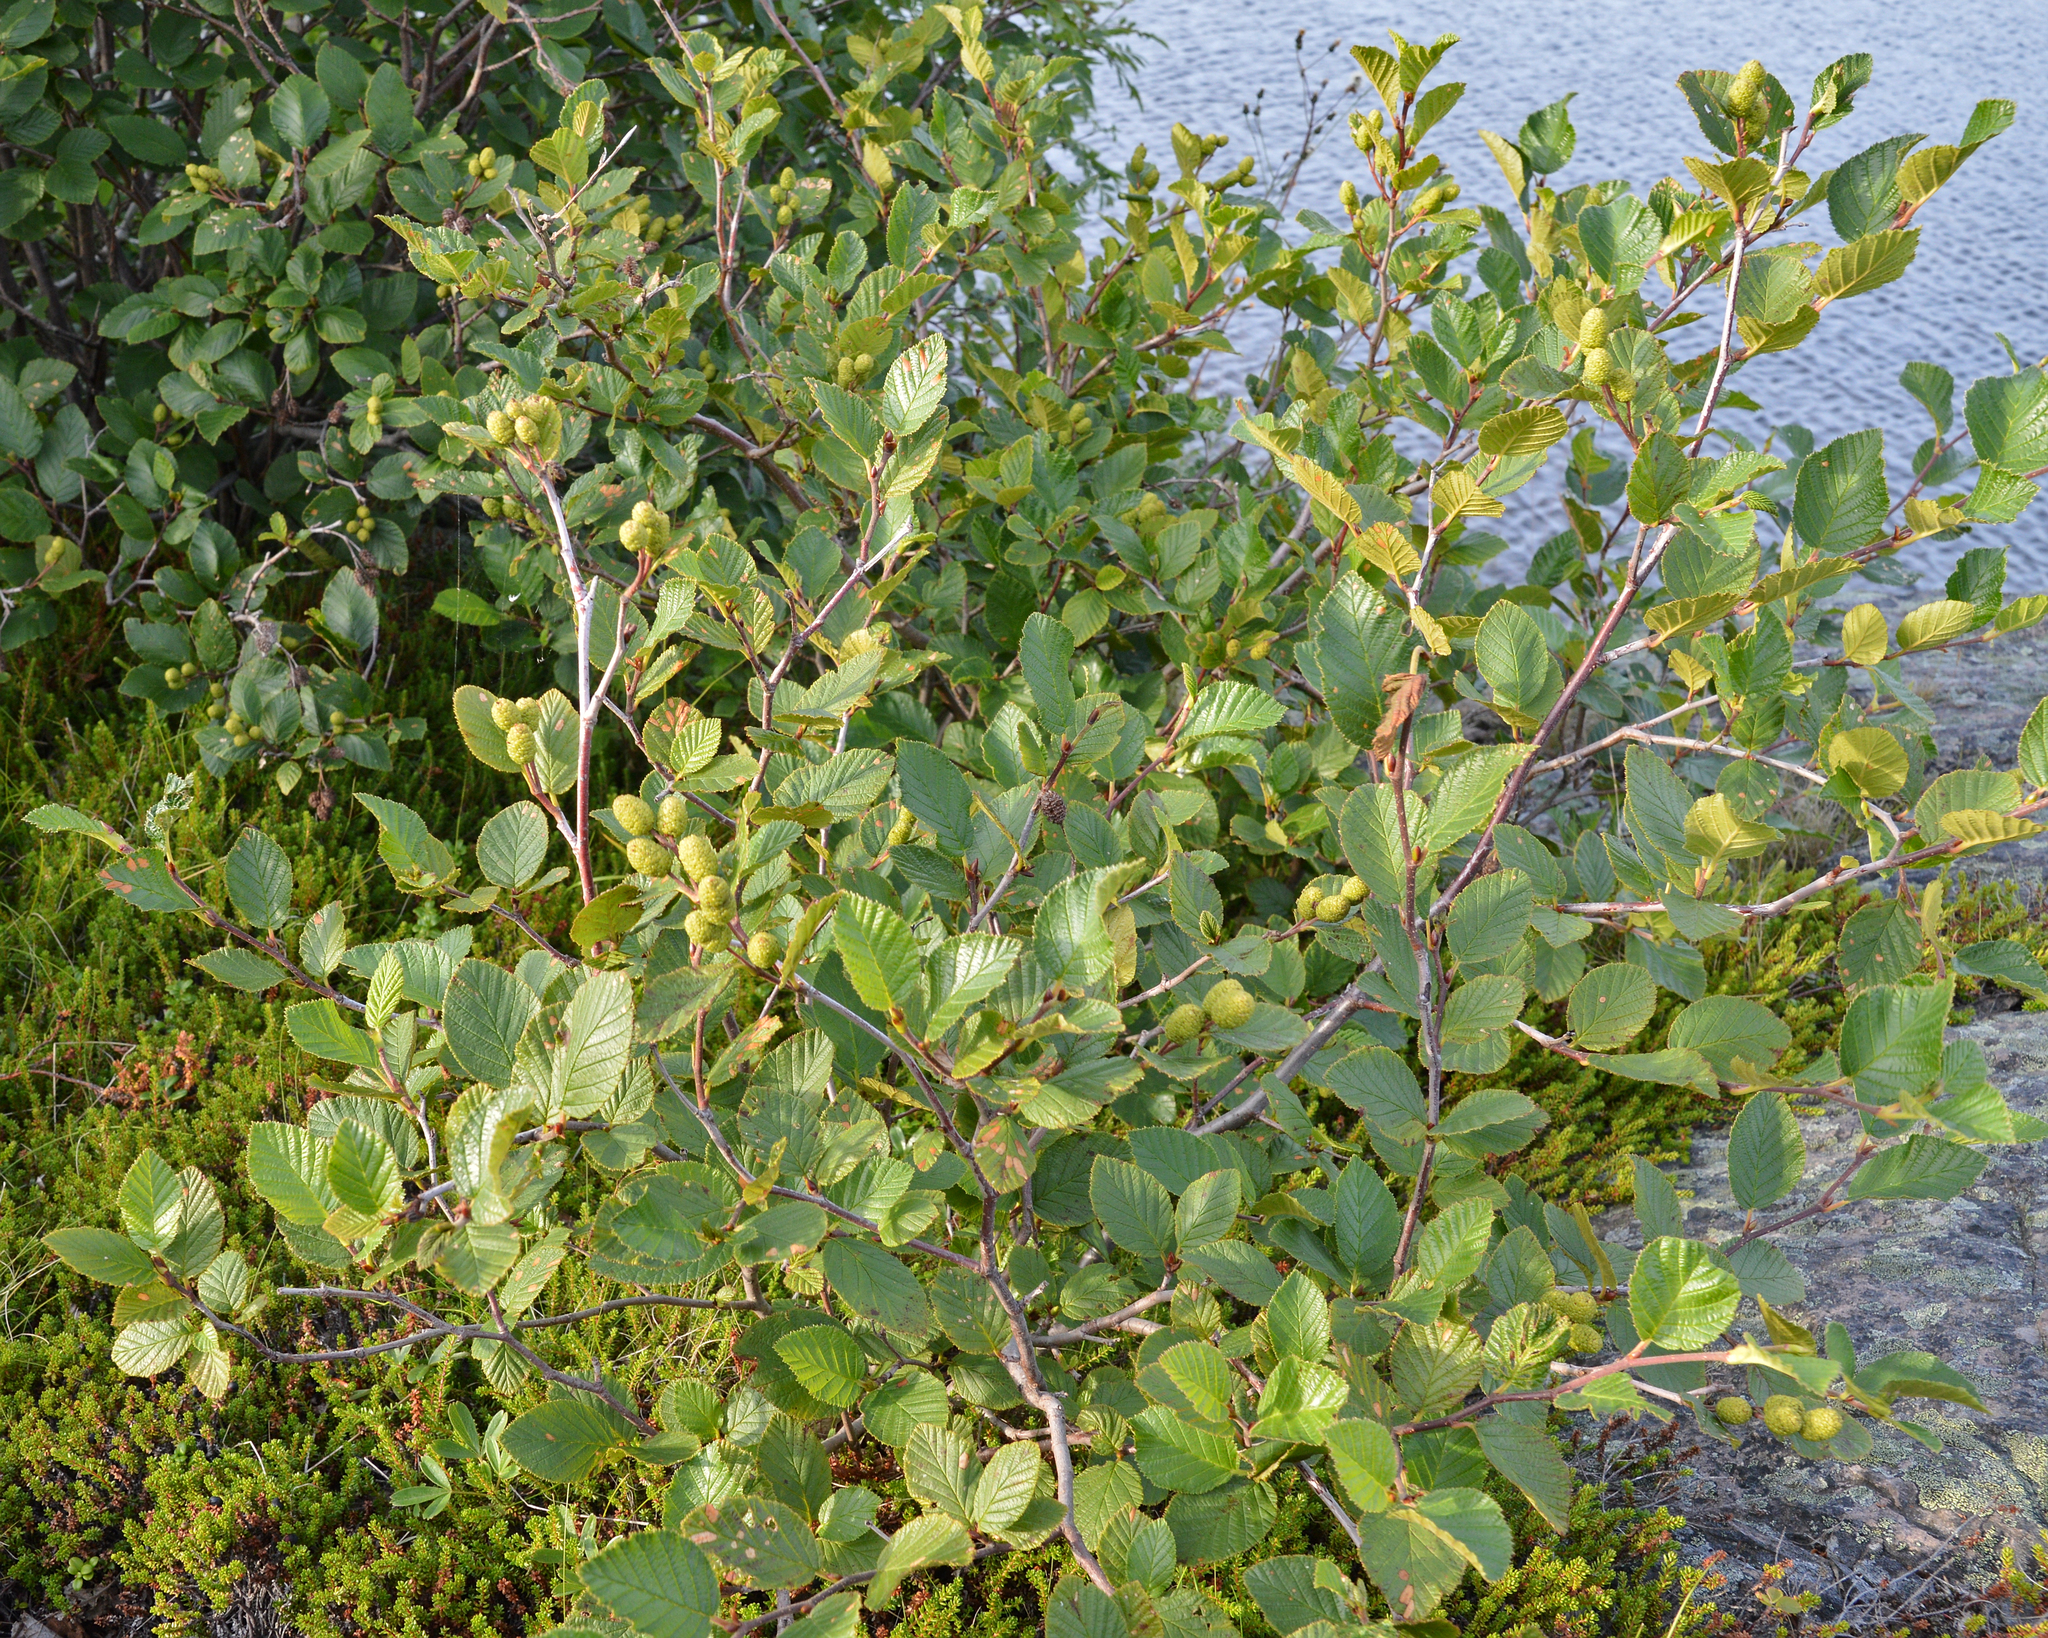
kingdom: Plantae
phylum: Tracheophyta
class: Magnoliopsida
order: Fagales
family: Betulaceae
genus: Alnus
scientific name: Alnus alnobetula
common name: Green alder
